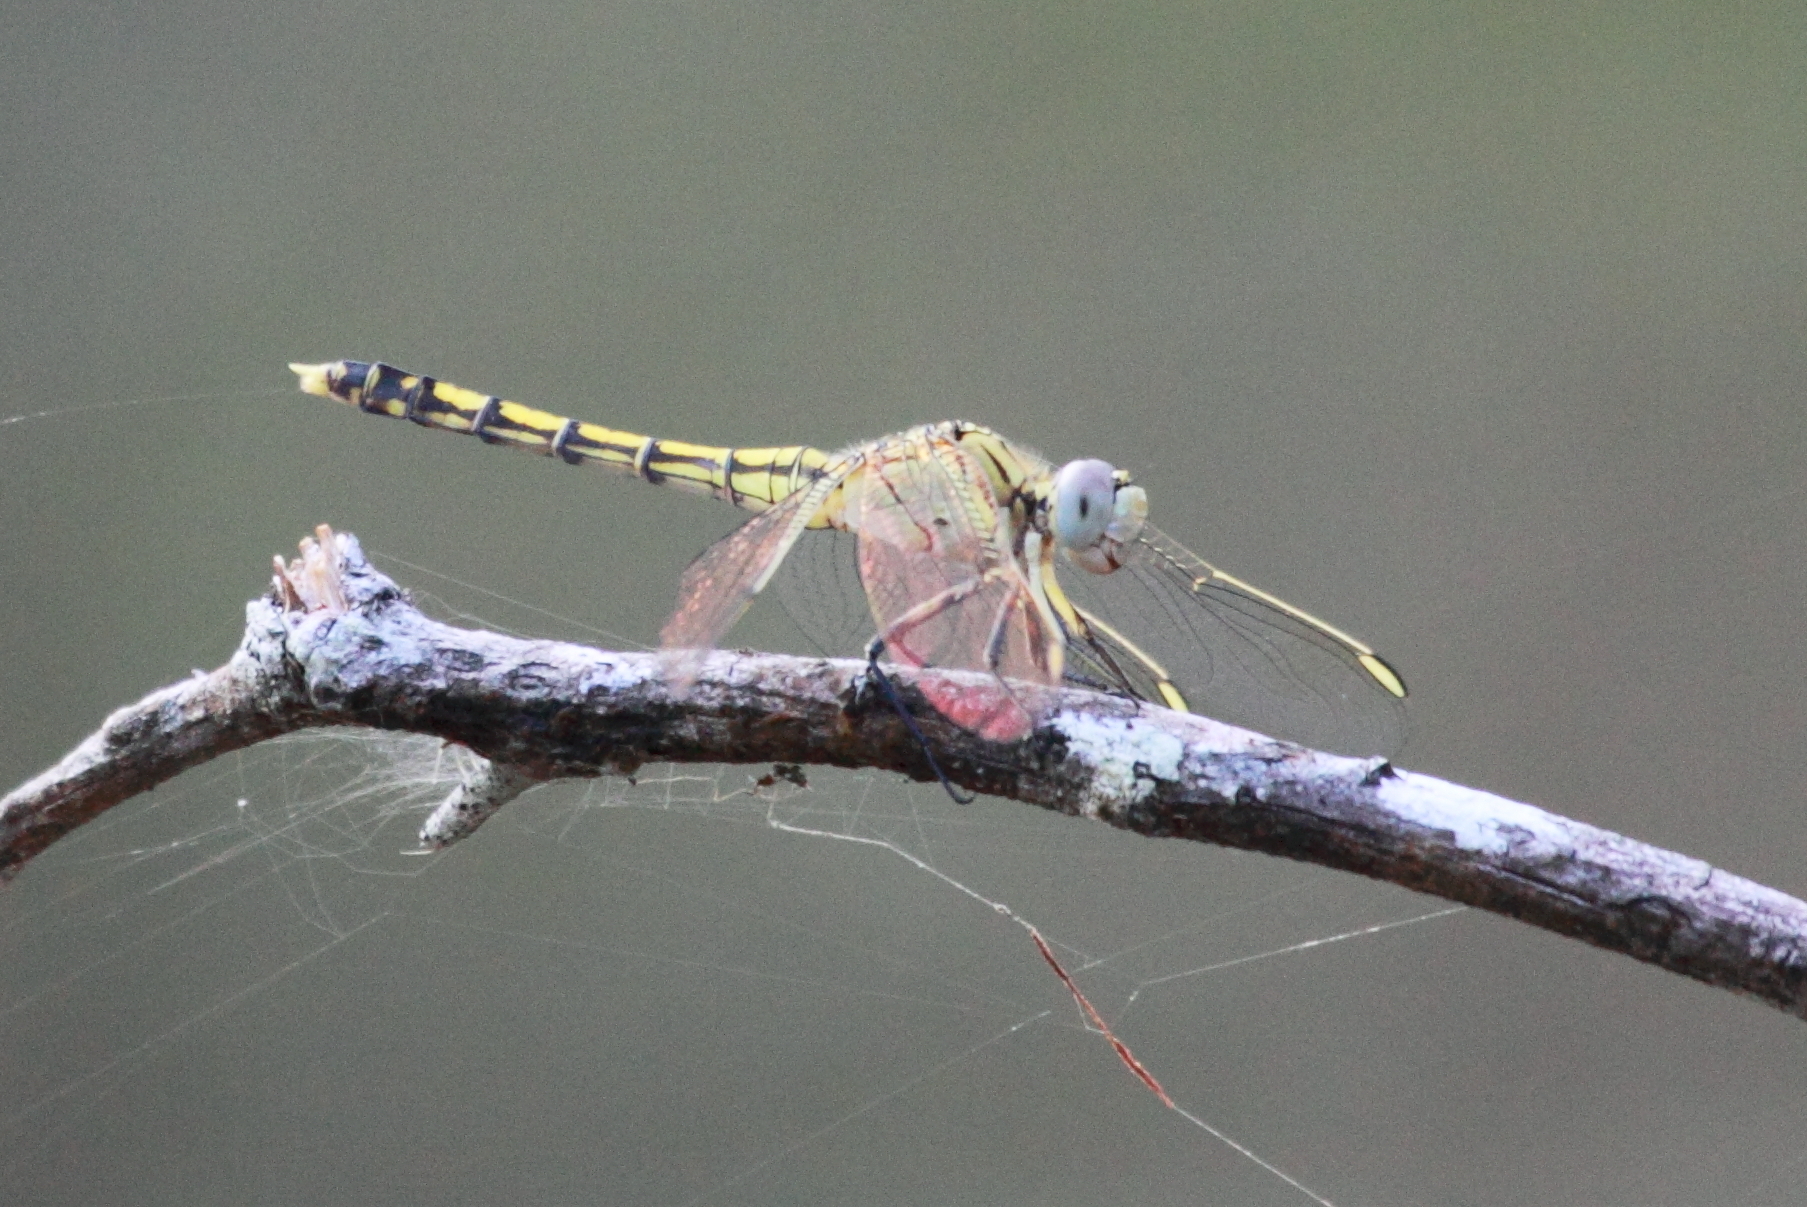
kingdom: Animalia
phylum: Arthropoda
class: Insecta
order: Odonata
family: Libellulidae
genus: Orthetrum
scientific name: Orthetrum caledonicum
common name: Blue skimmer
